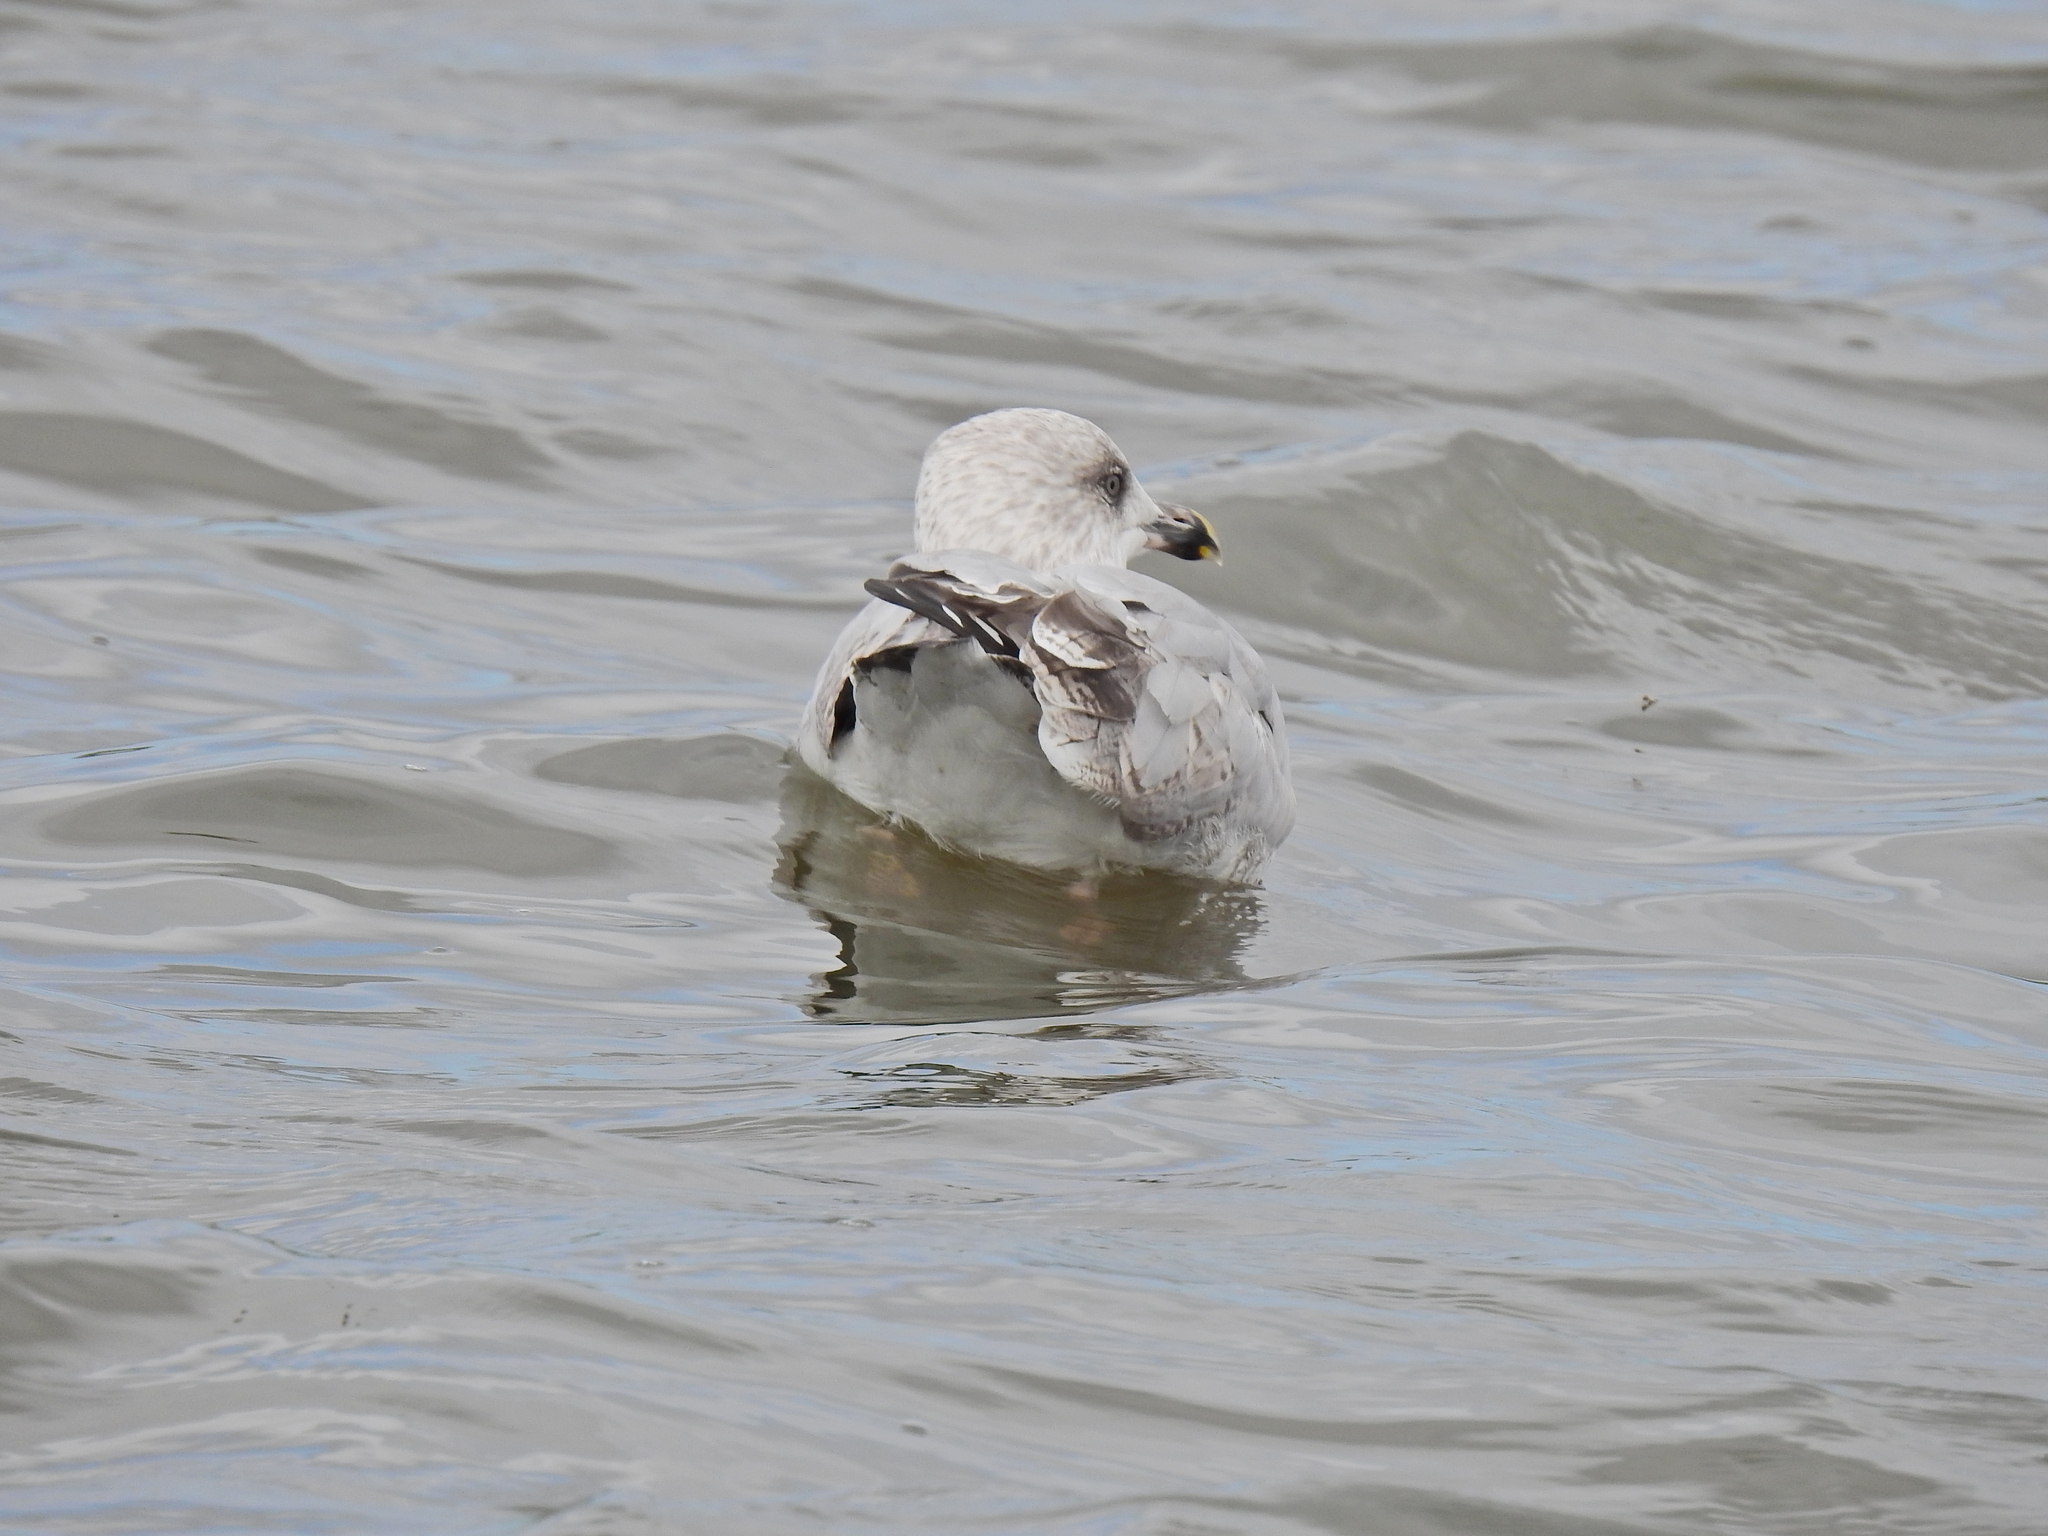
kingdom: Animalia
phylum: Chordata
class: Aves
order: Charadriiformes
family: Laridae
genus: Larus
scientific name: Larus argentatus
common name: Herring gull
